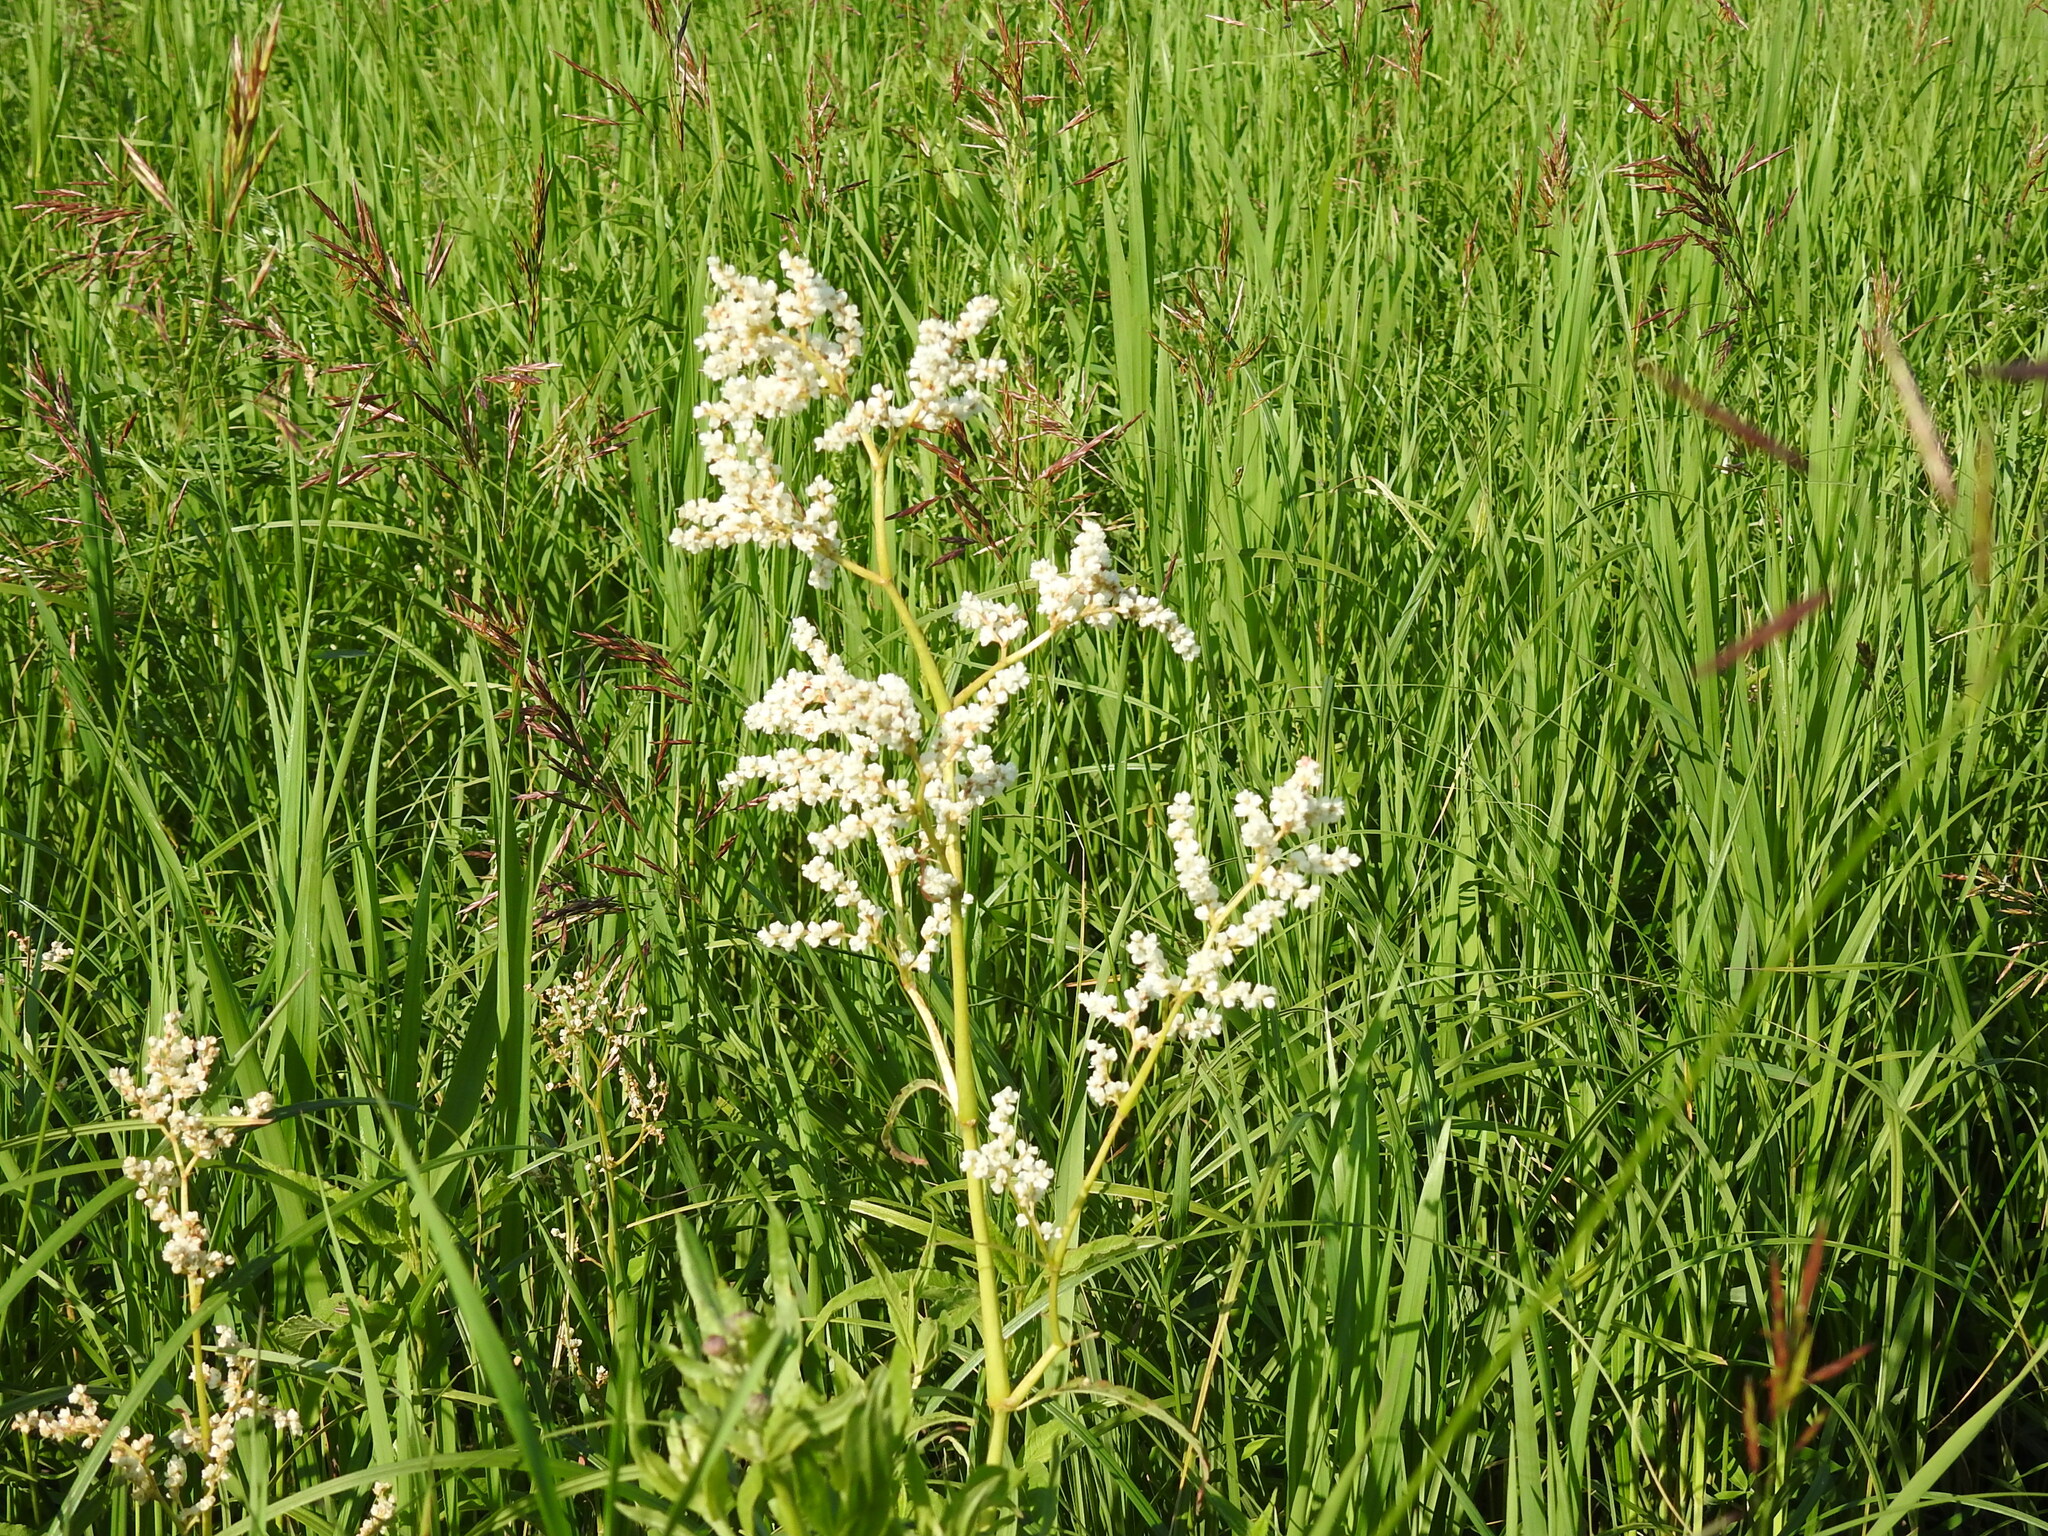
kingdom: Plantae
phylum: Tracheophyta
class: Magnoliopsida
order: Caryophyllales
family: Polygonaceae
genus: Koenigia
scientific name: Koenigia alpina
